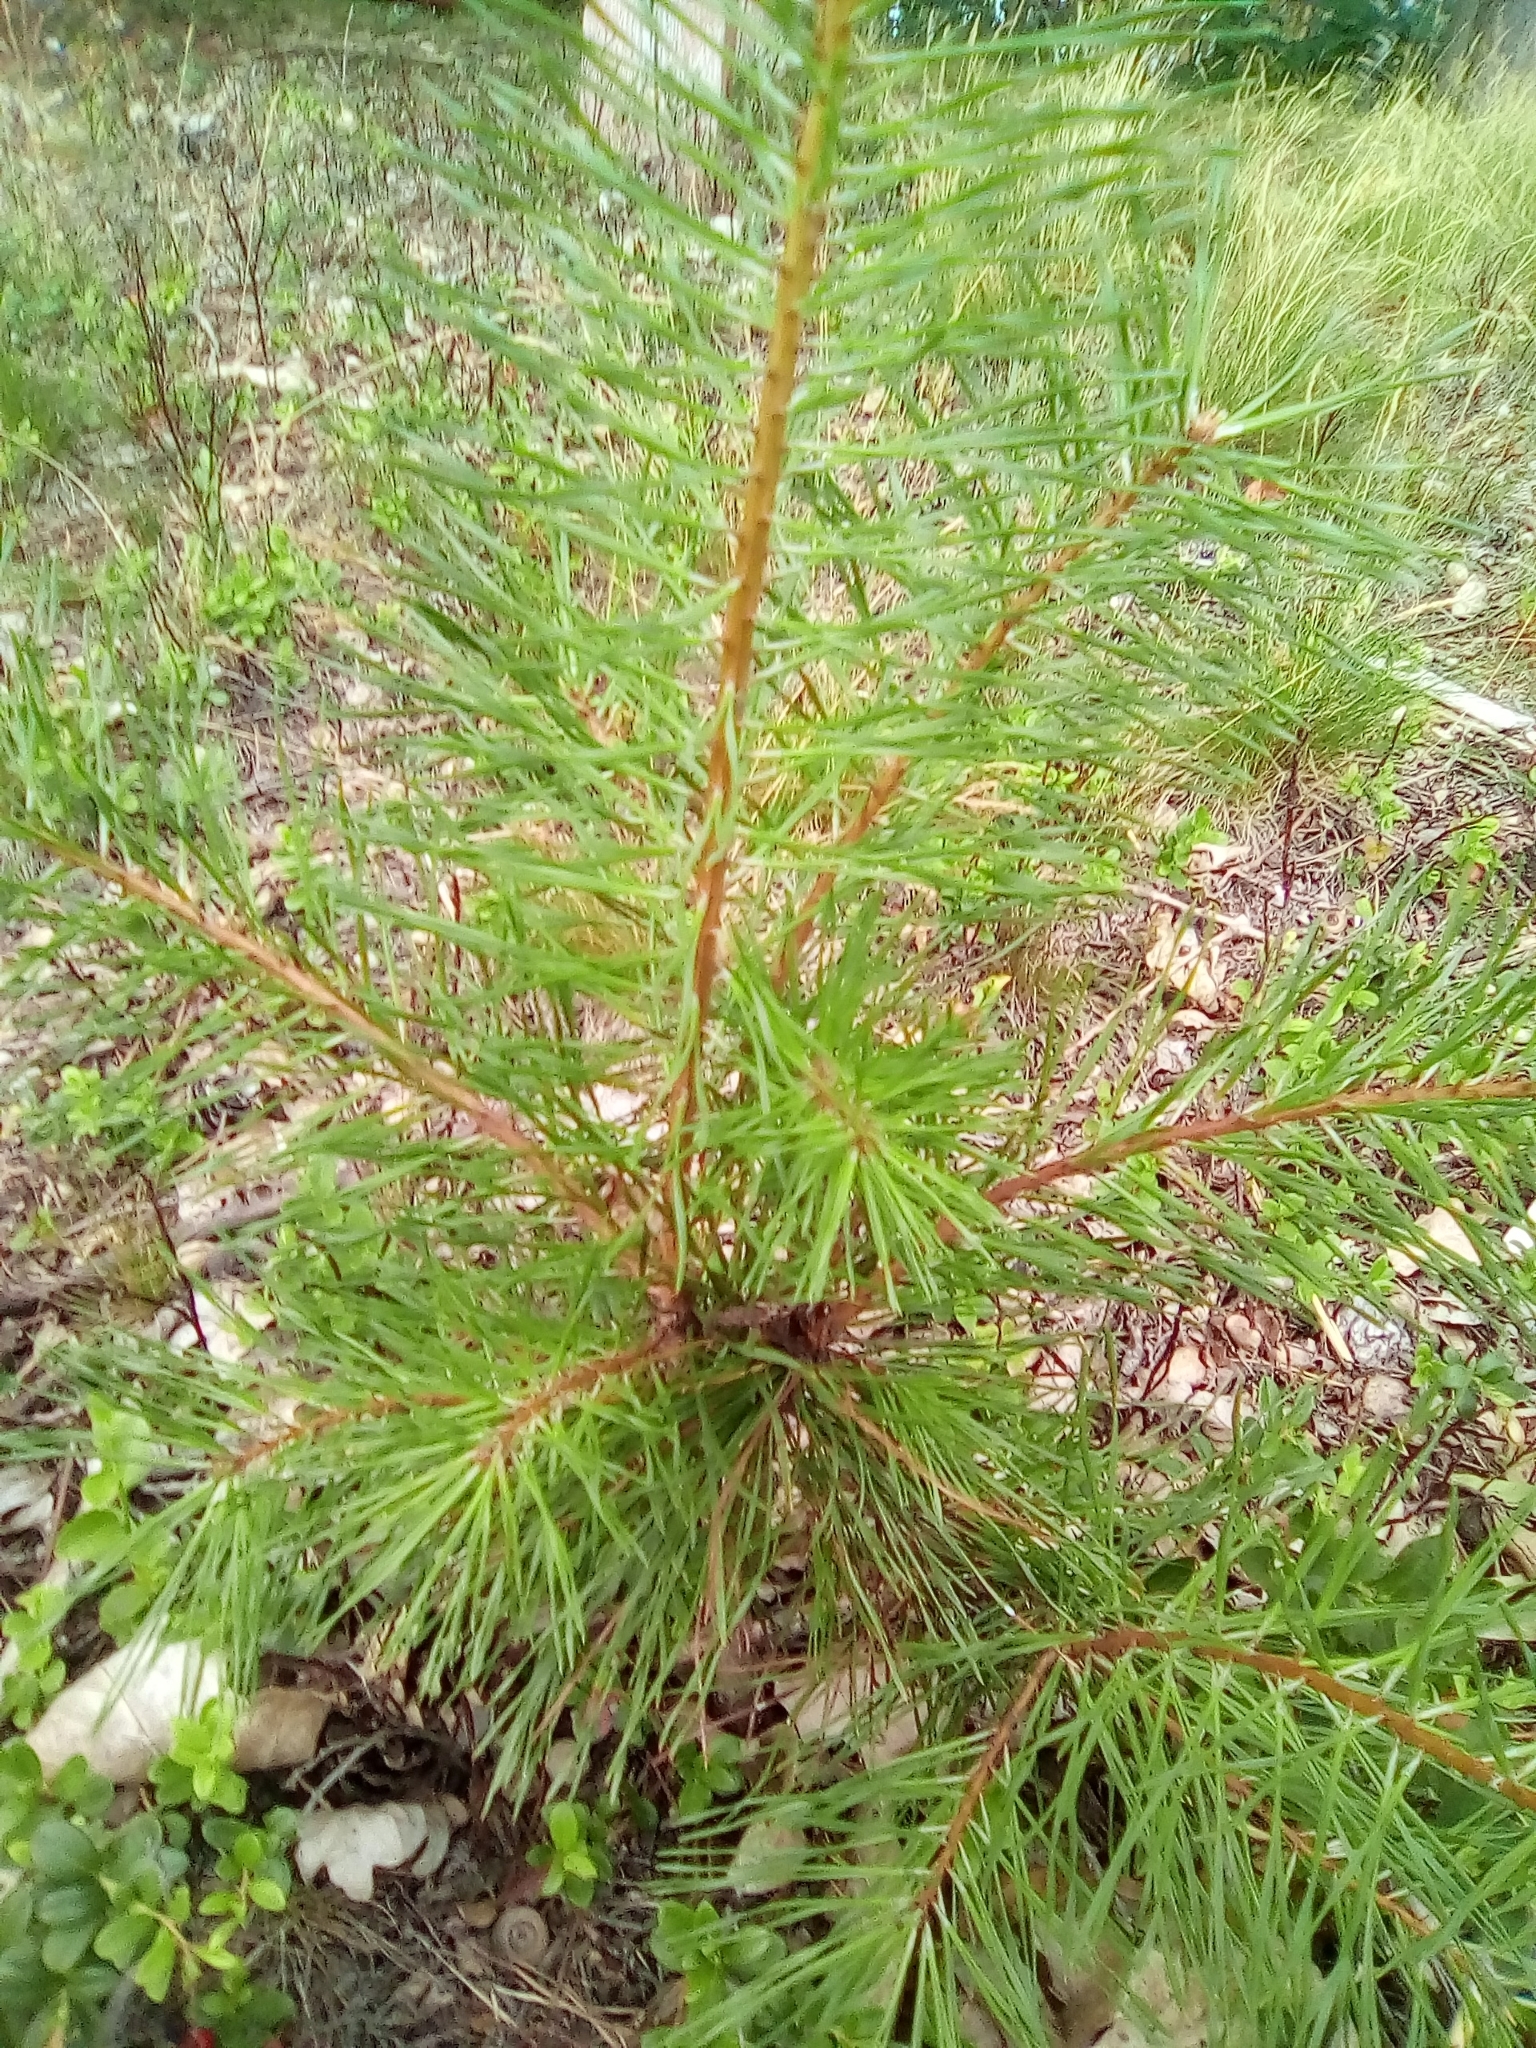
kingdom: Plantae
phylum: Tracheophyta
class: Pinopsida
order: Pinales
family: Pinaceae
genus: Pinus
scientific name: Pinus sylvestris
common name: Scots pine
